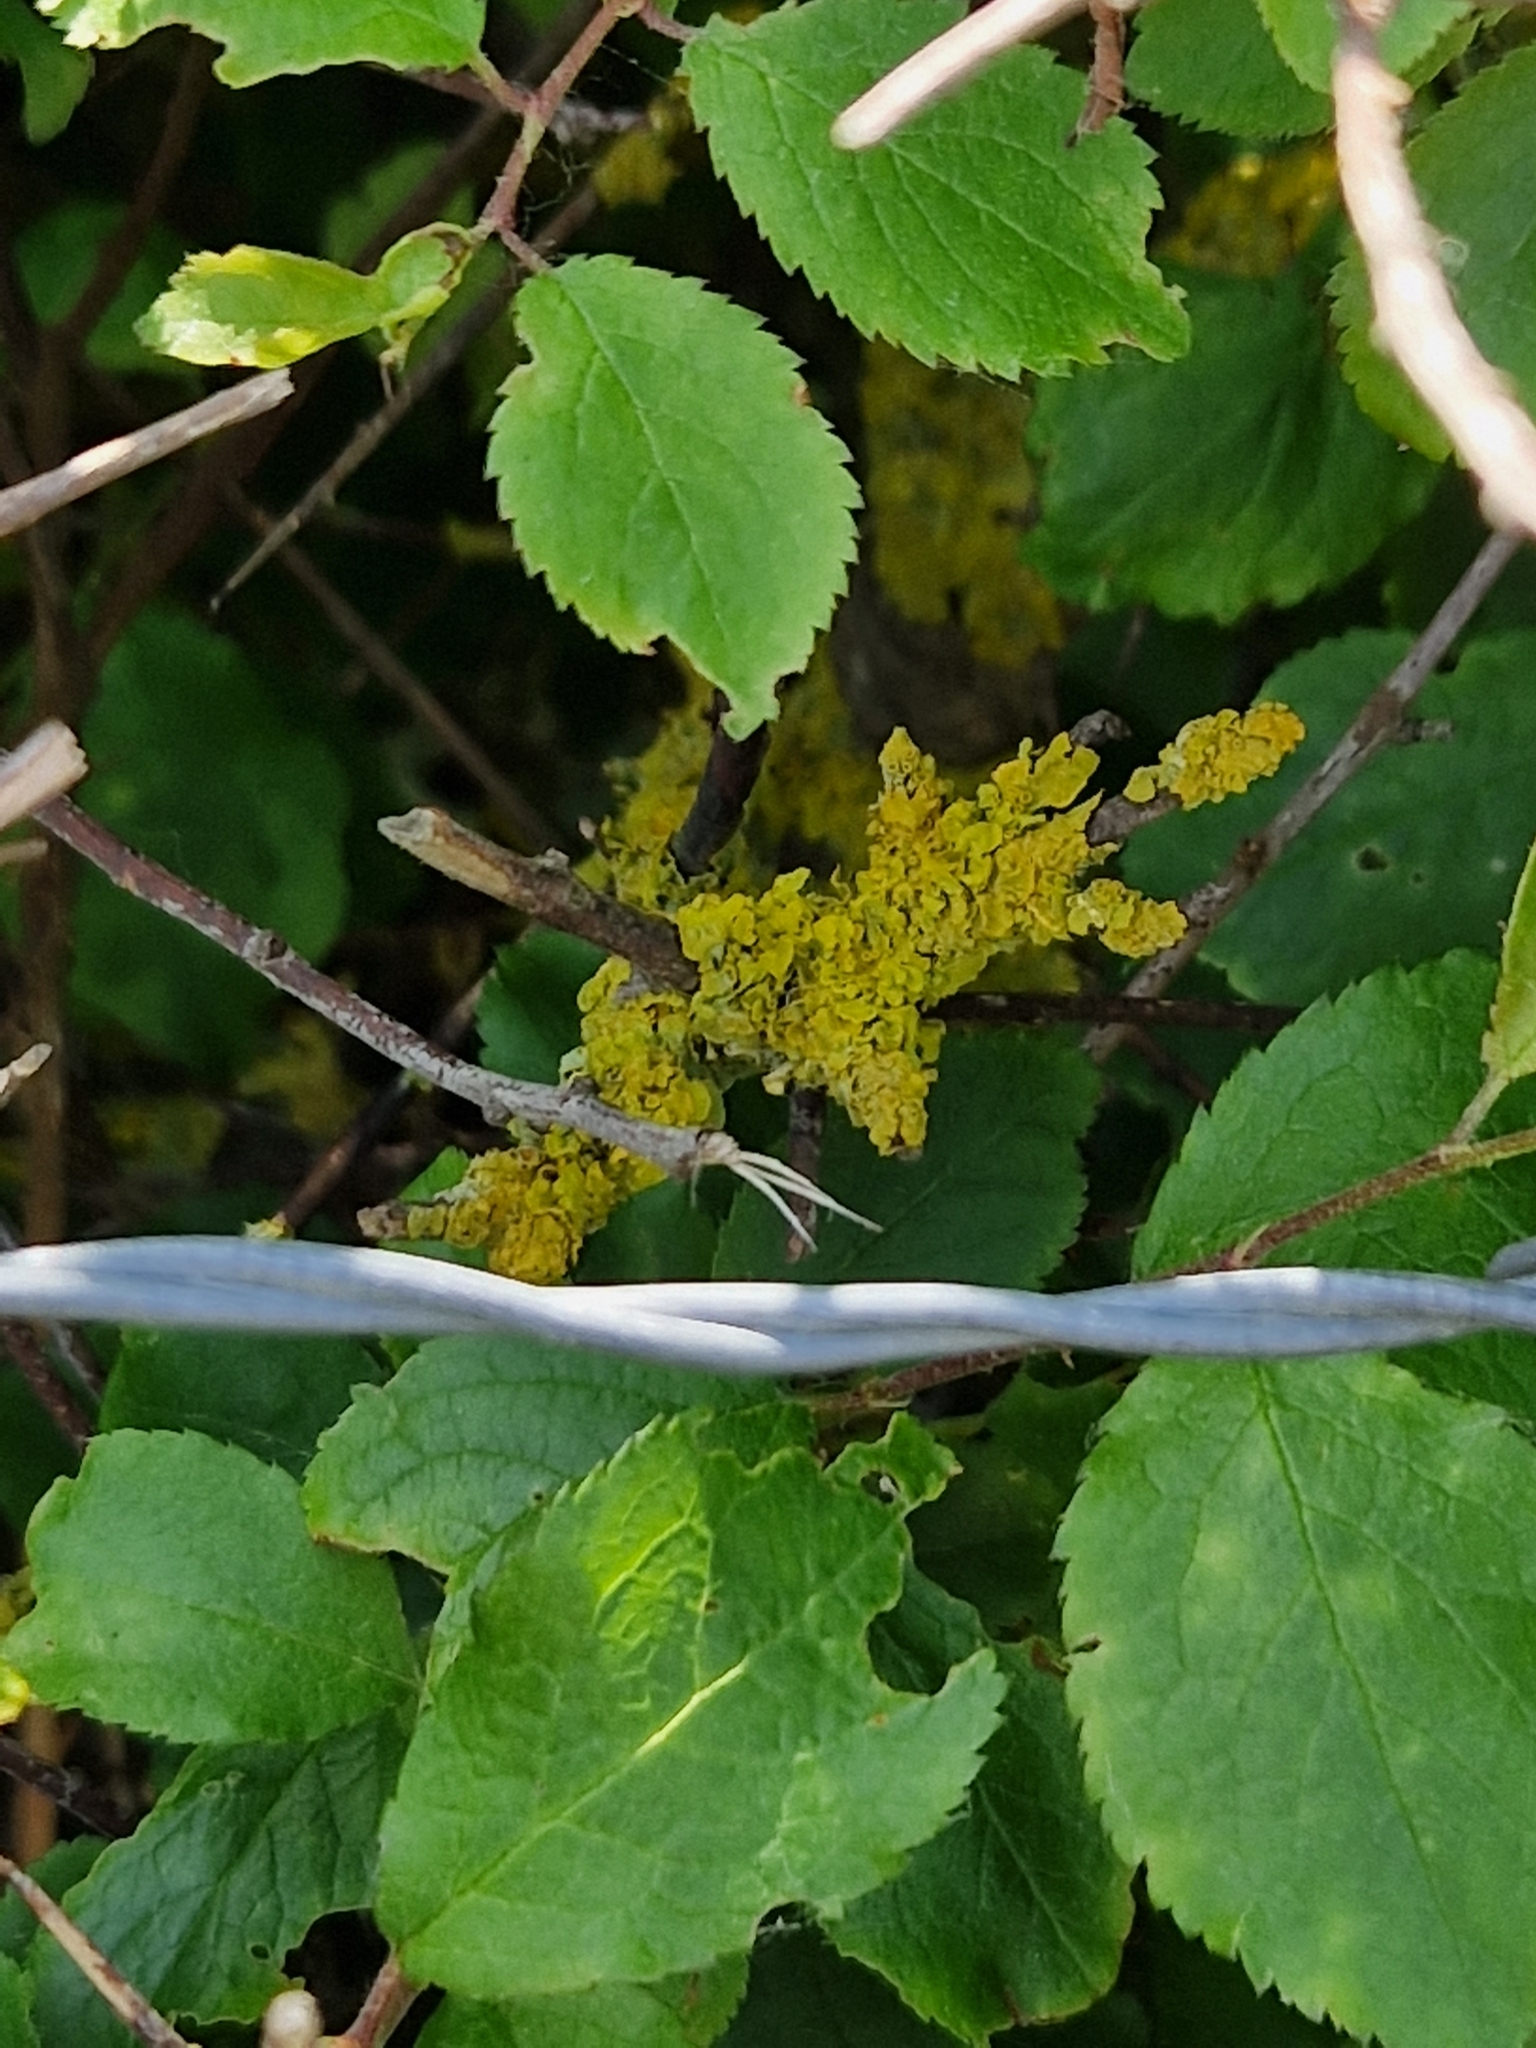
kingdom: Fungi
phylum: Ascomycota
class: Lecanoromycetes
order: Teloschistales
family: Teloschistaceae
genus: Xanthoria
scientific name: Xanthoria parietina
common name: Common orange lichen
